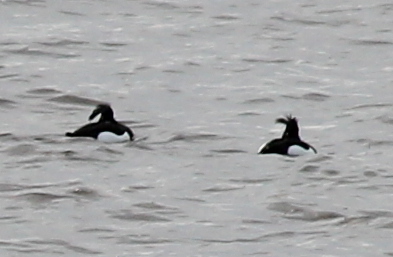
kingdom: Animalia
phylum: Chordata
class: Aves
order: Anseriformes
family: Anatidae
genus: Aythya
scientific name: Aythya fuligula
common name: Tufted duck
